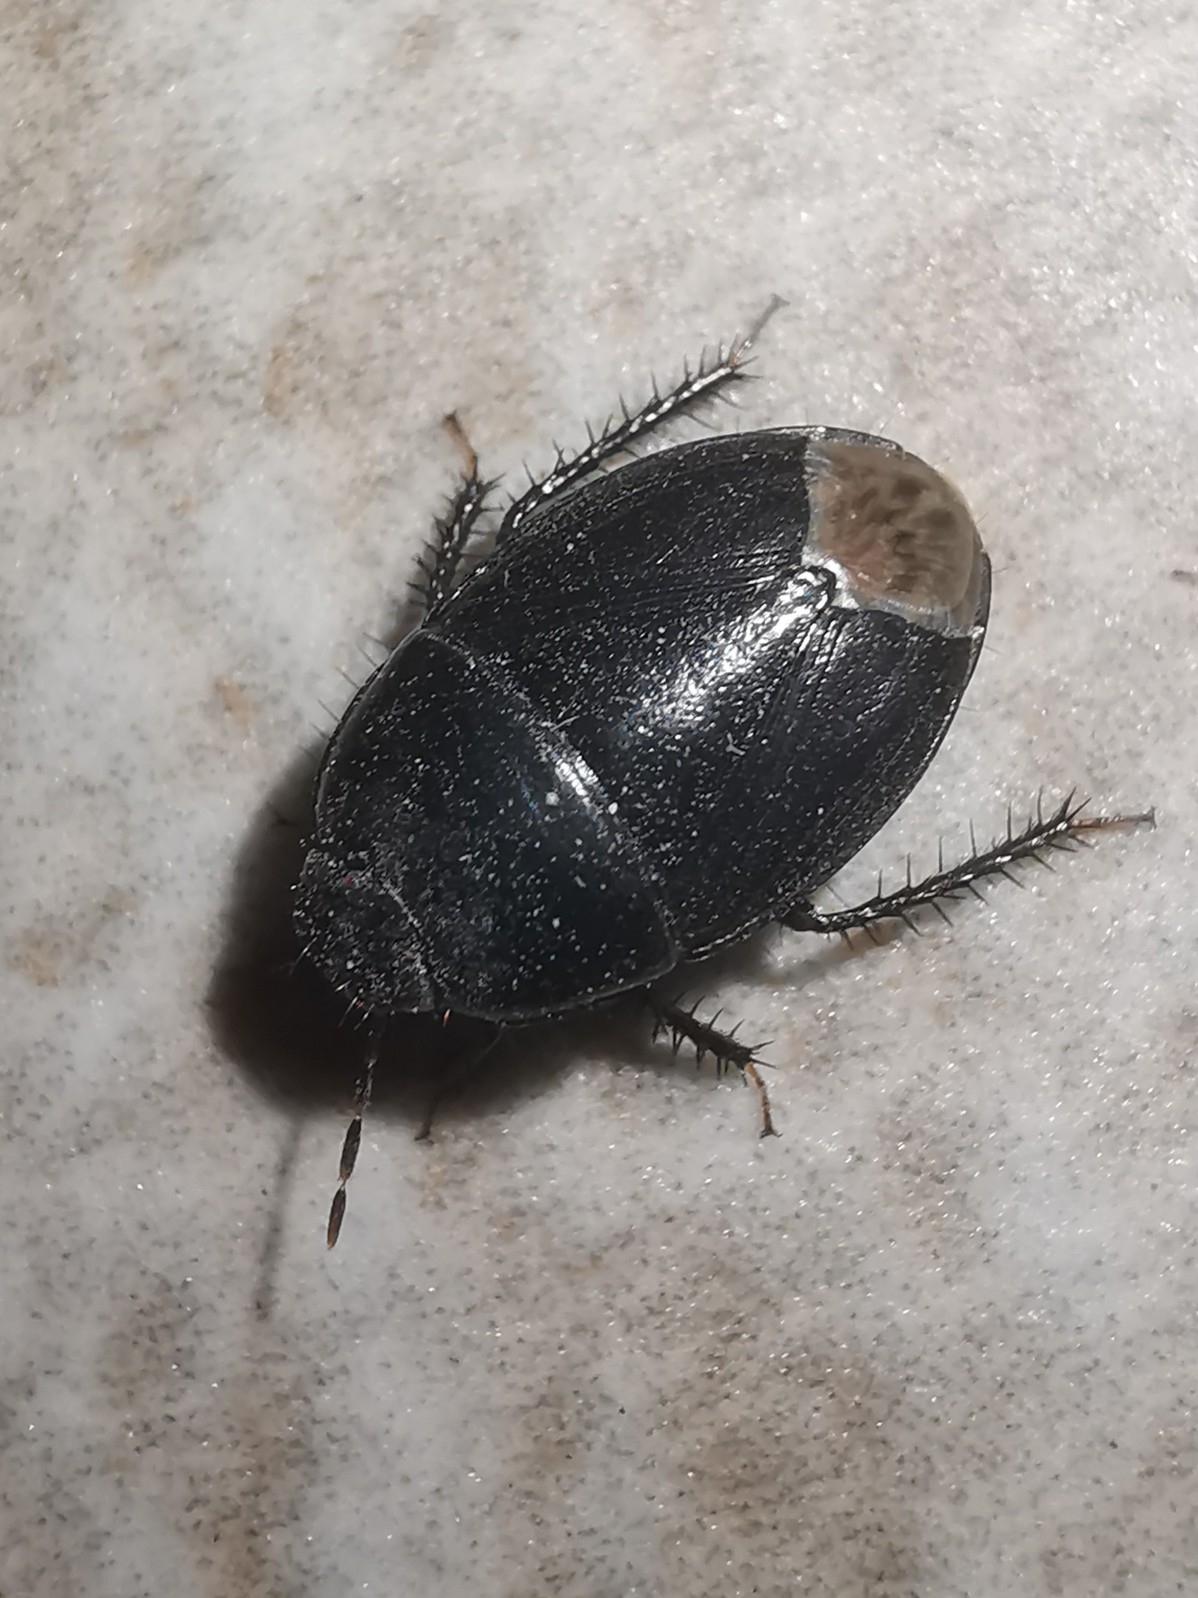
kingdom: Animalia
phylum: Arthropoda
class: Insecta
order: Hemiptera
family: Cydnidae
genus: Macroscytus
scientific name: Macroscytus brunneus
